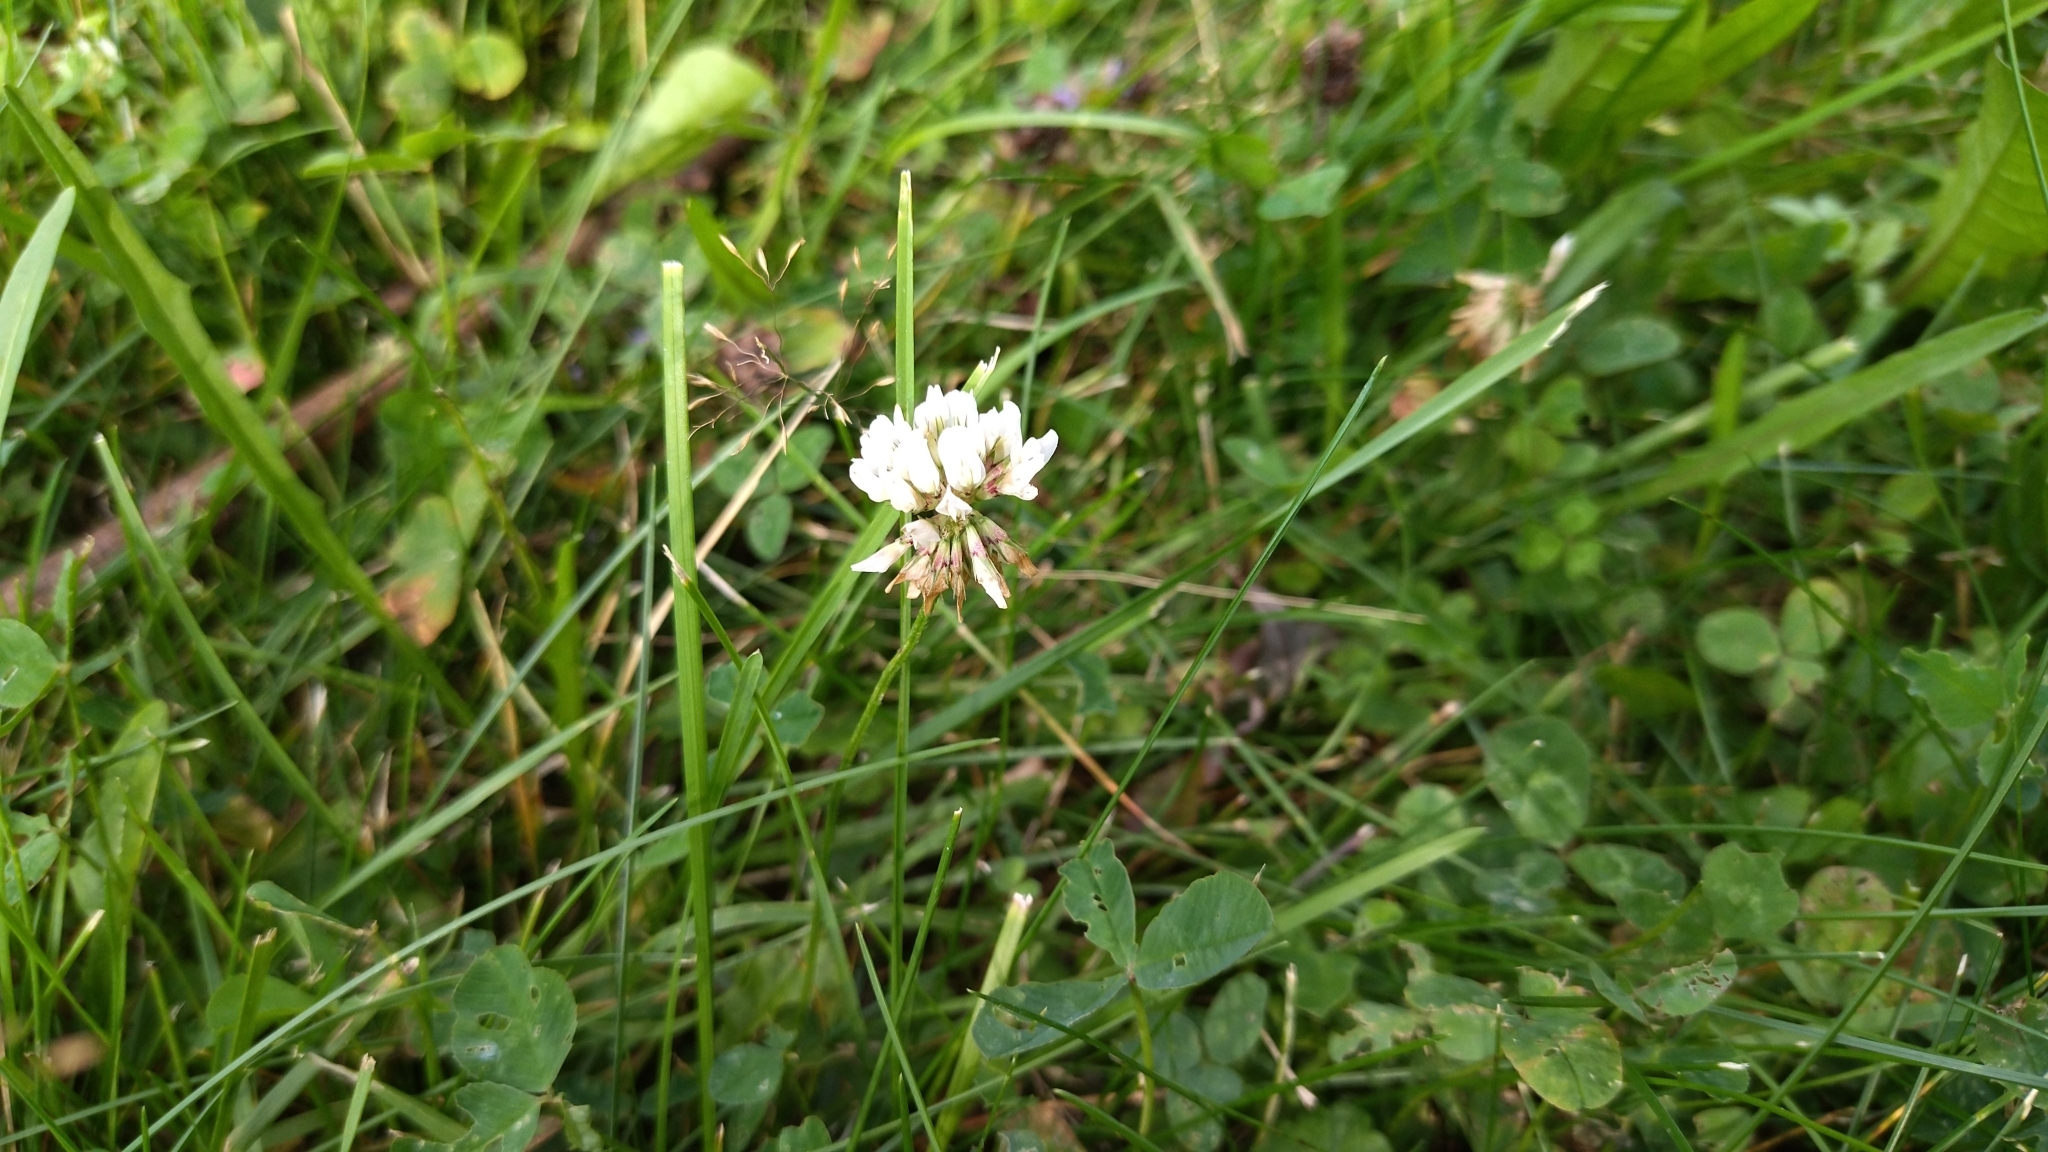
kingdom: Plantae
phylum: Tracheophyta
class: Magnoliopsida
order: Fabales
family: Fabaceae
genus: Trifolium
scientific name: Trifolium repens
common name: White clover
